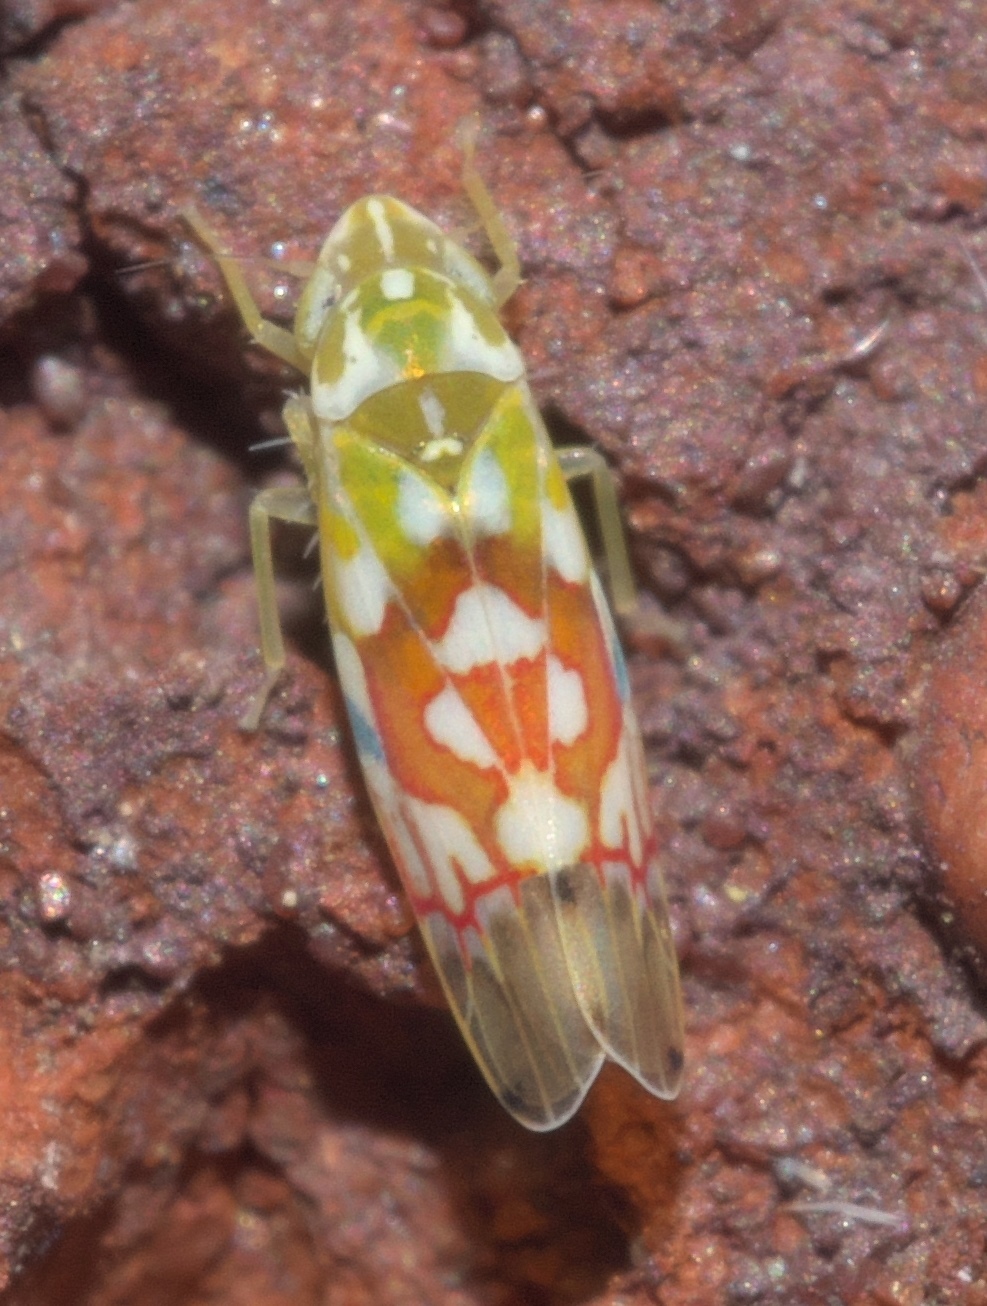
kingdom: Animalia
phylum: Arthropoda
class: Insecta
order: Hemiptera
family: Cicadellidae
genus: Erythroneura
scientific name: Erythroneura reflecta
